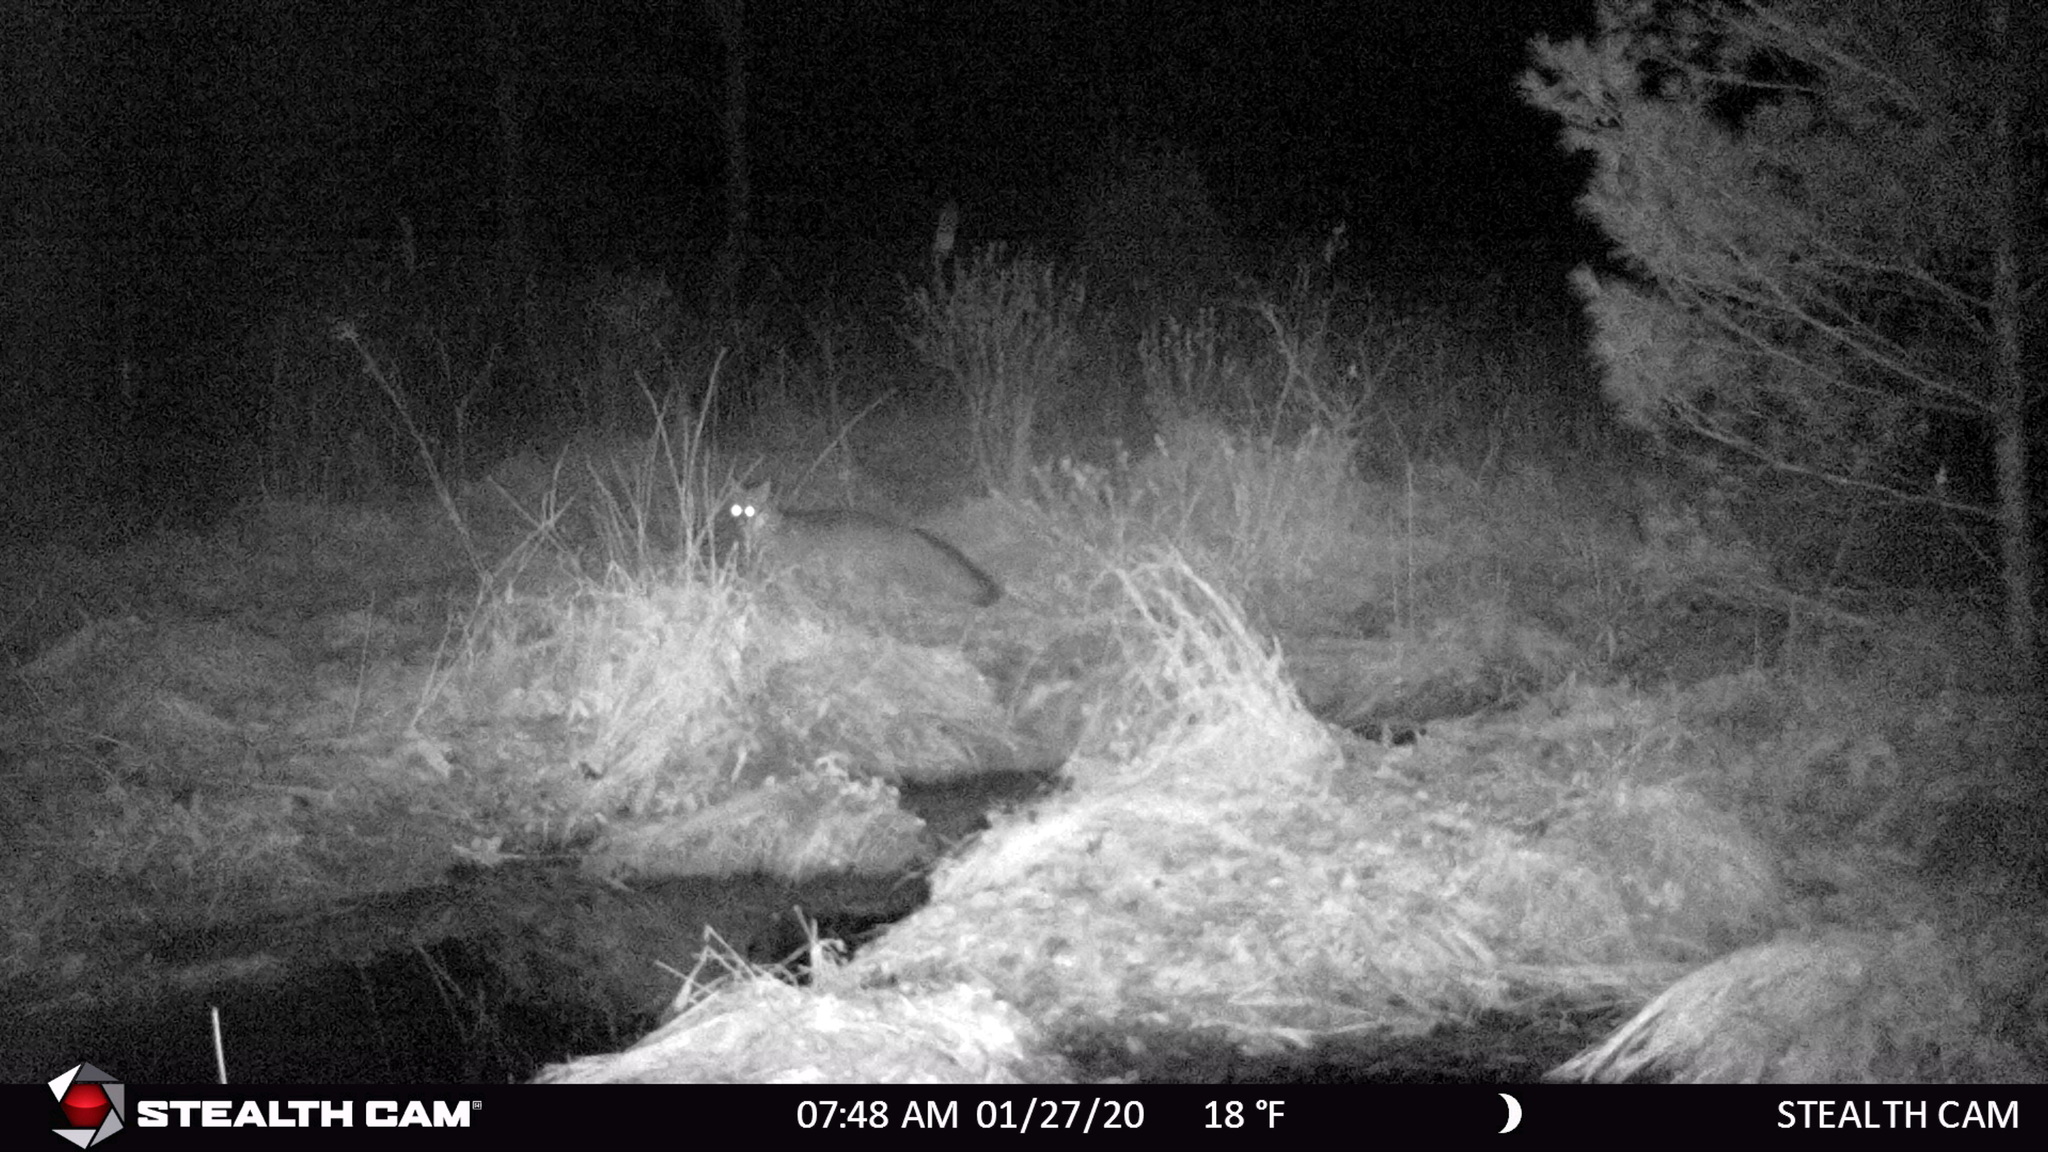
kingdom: Animalia
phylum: Chordata
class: Mammalia
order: Carnivora
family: Canidae
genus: Urocyon
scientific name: Urocyon cinereoargenteus
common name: Gray fox
